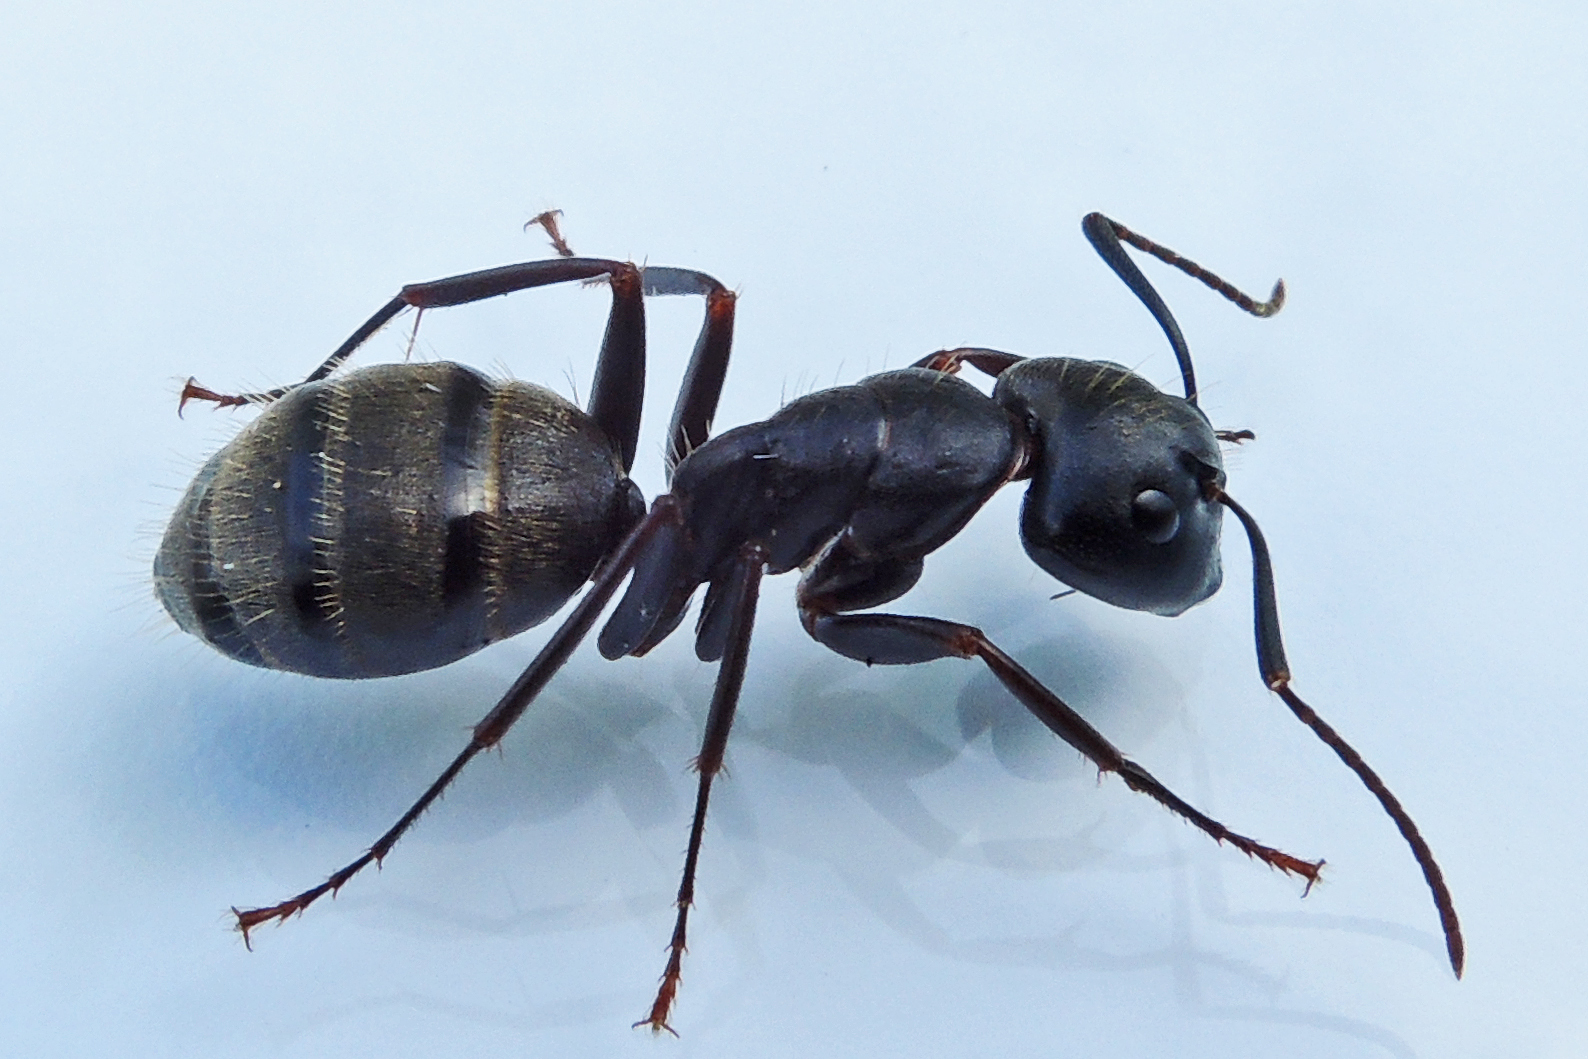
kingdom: Animalia
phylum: Arthropoda
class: Insecta
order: Hymenoptera
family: Formicidae
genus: Camponotus
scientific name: Camponotus pennsylvanicus
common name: Black carpenter ant
